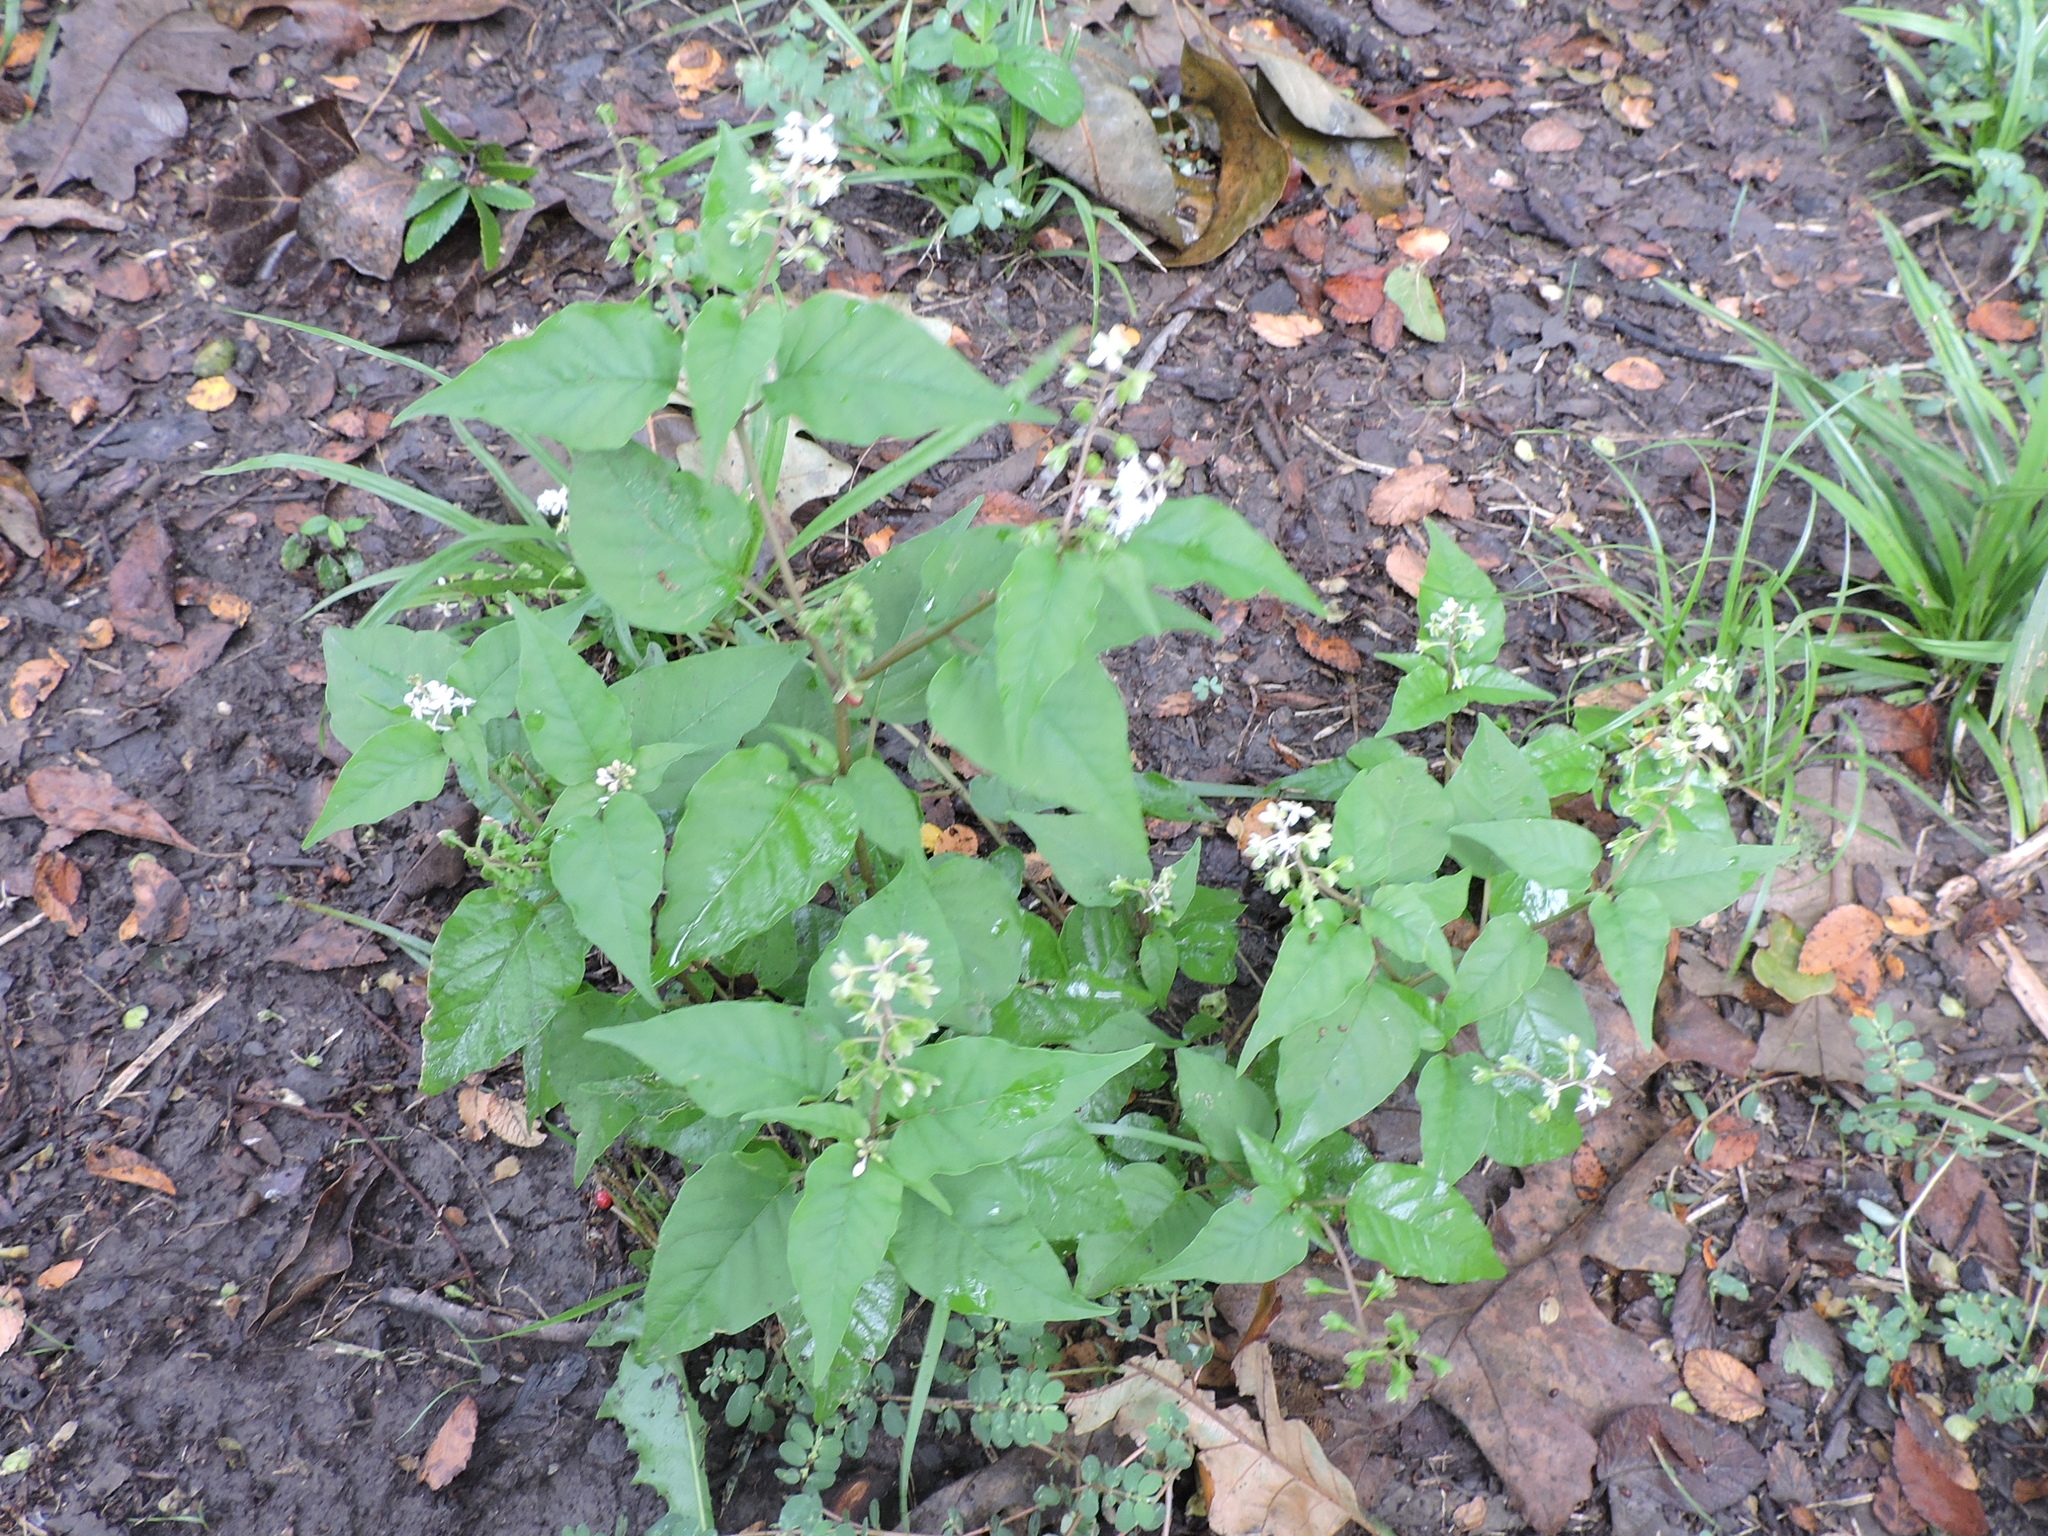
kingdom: Plantae
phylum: Tracheophyta
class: Magnoliopsida
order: Caryophyllales
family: Phytolaccaceae
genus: Rivina
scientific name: Rivina humilis
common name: Rougeplant
